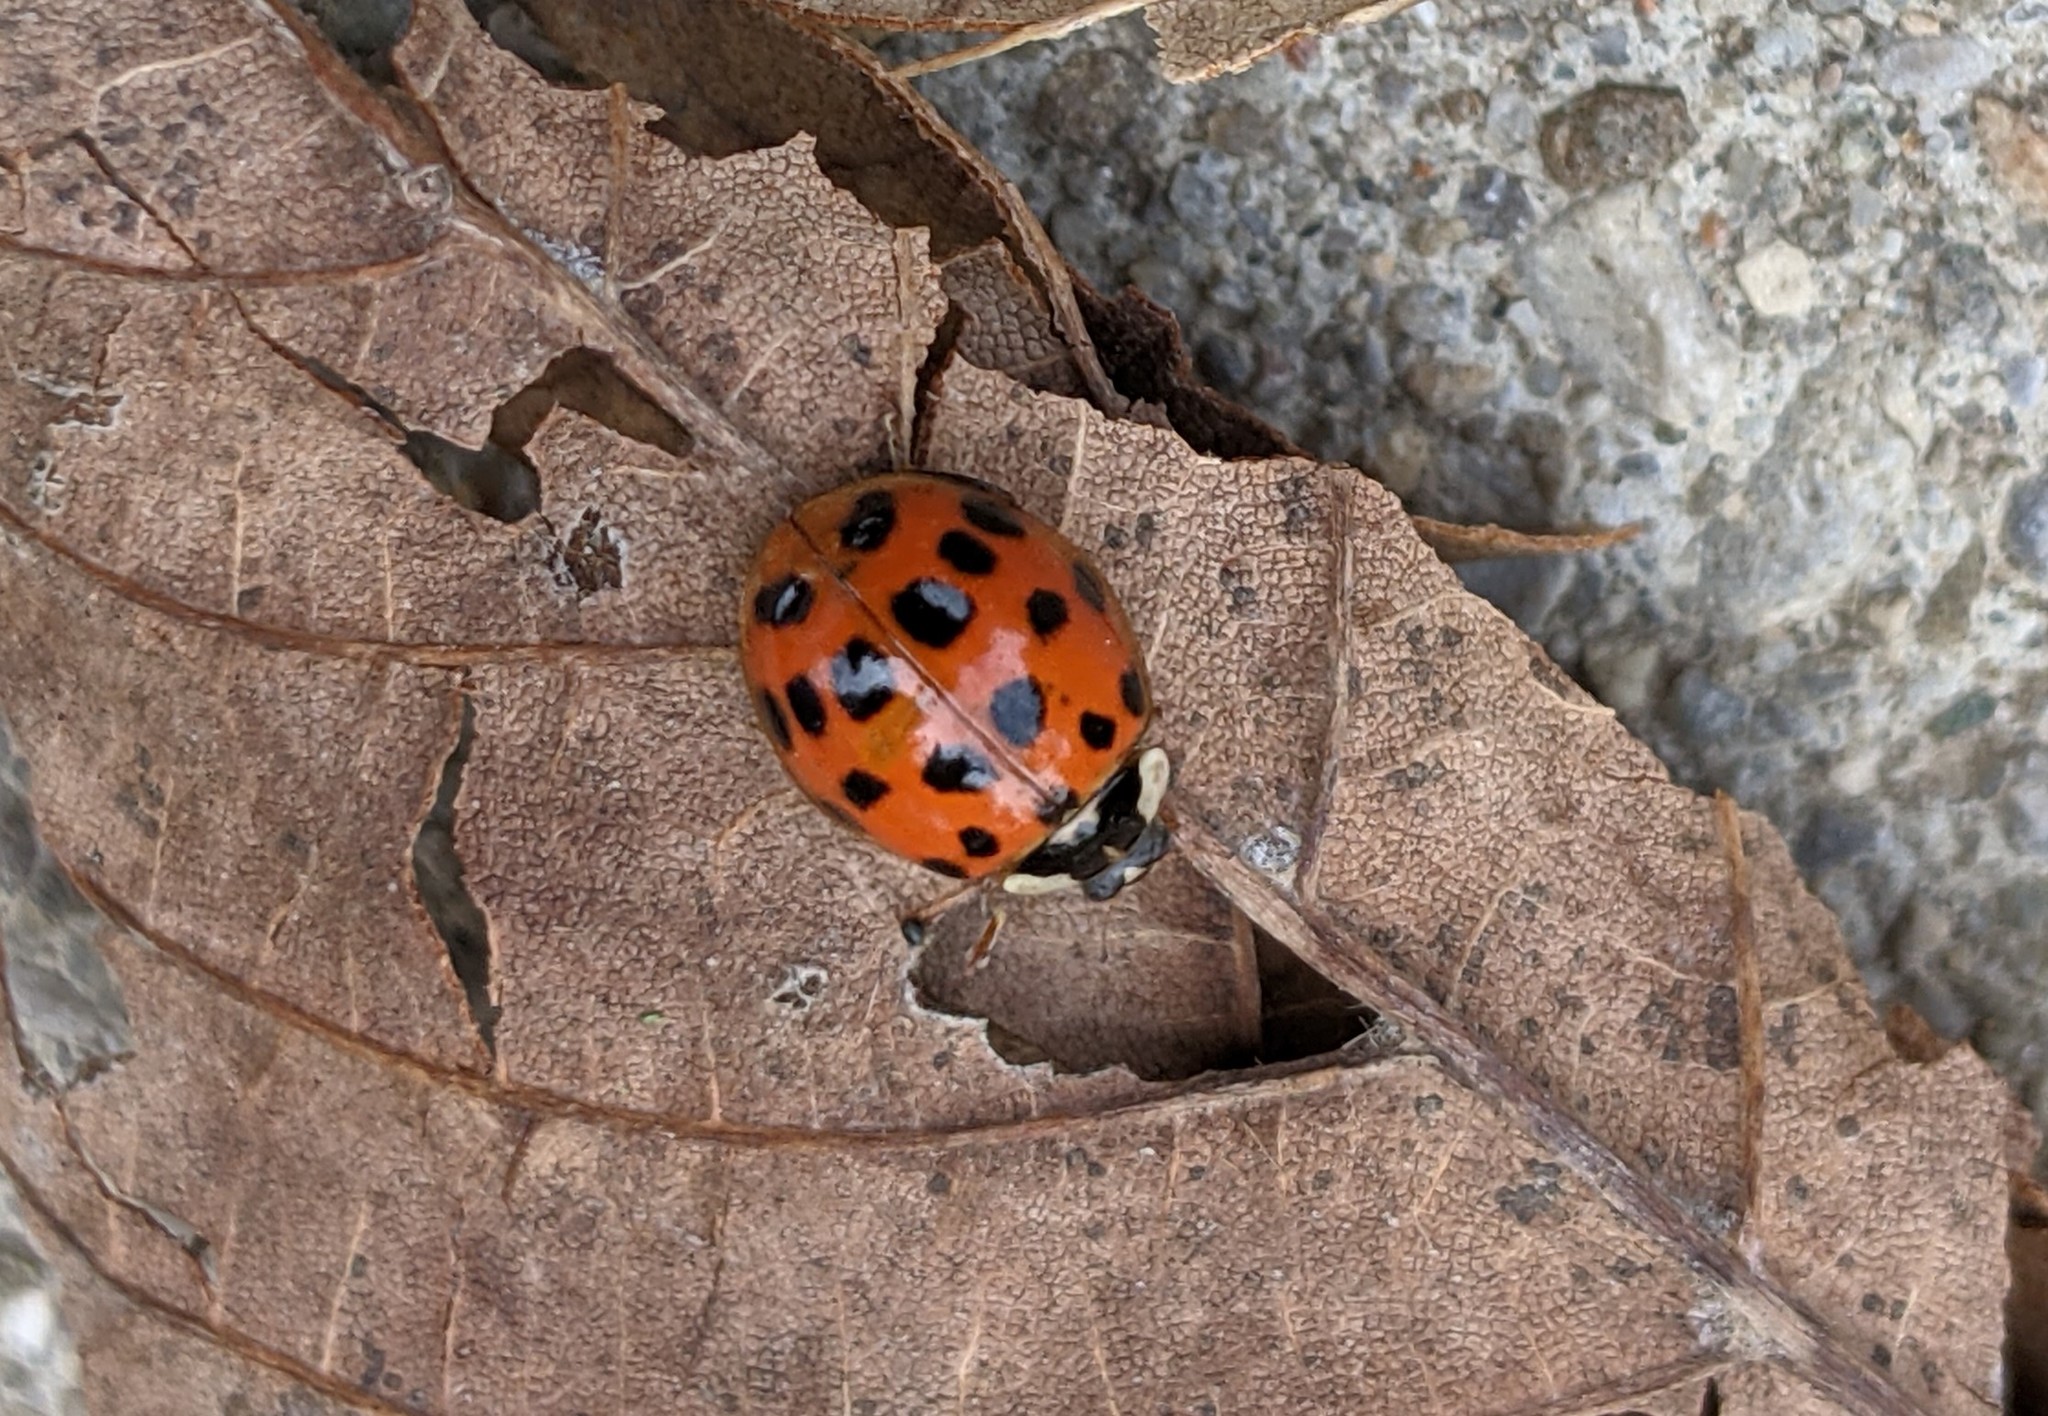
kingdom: Animalia
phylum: Arthropoda
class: Insecta
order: Coleoptera
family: Coccinellidae
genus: Harmonia
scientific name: Harmonia axyridis
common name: Harlequin ladybird
